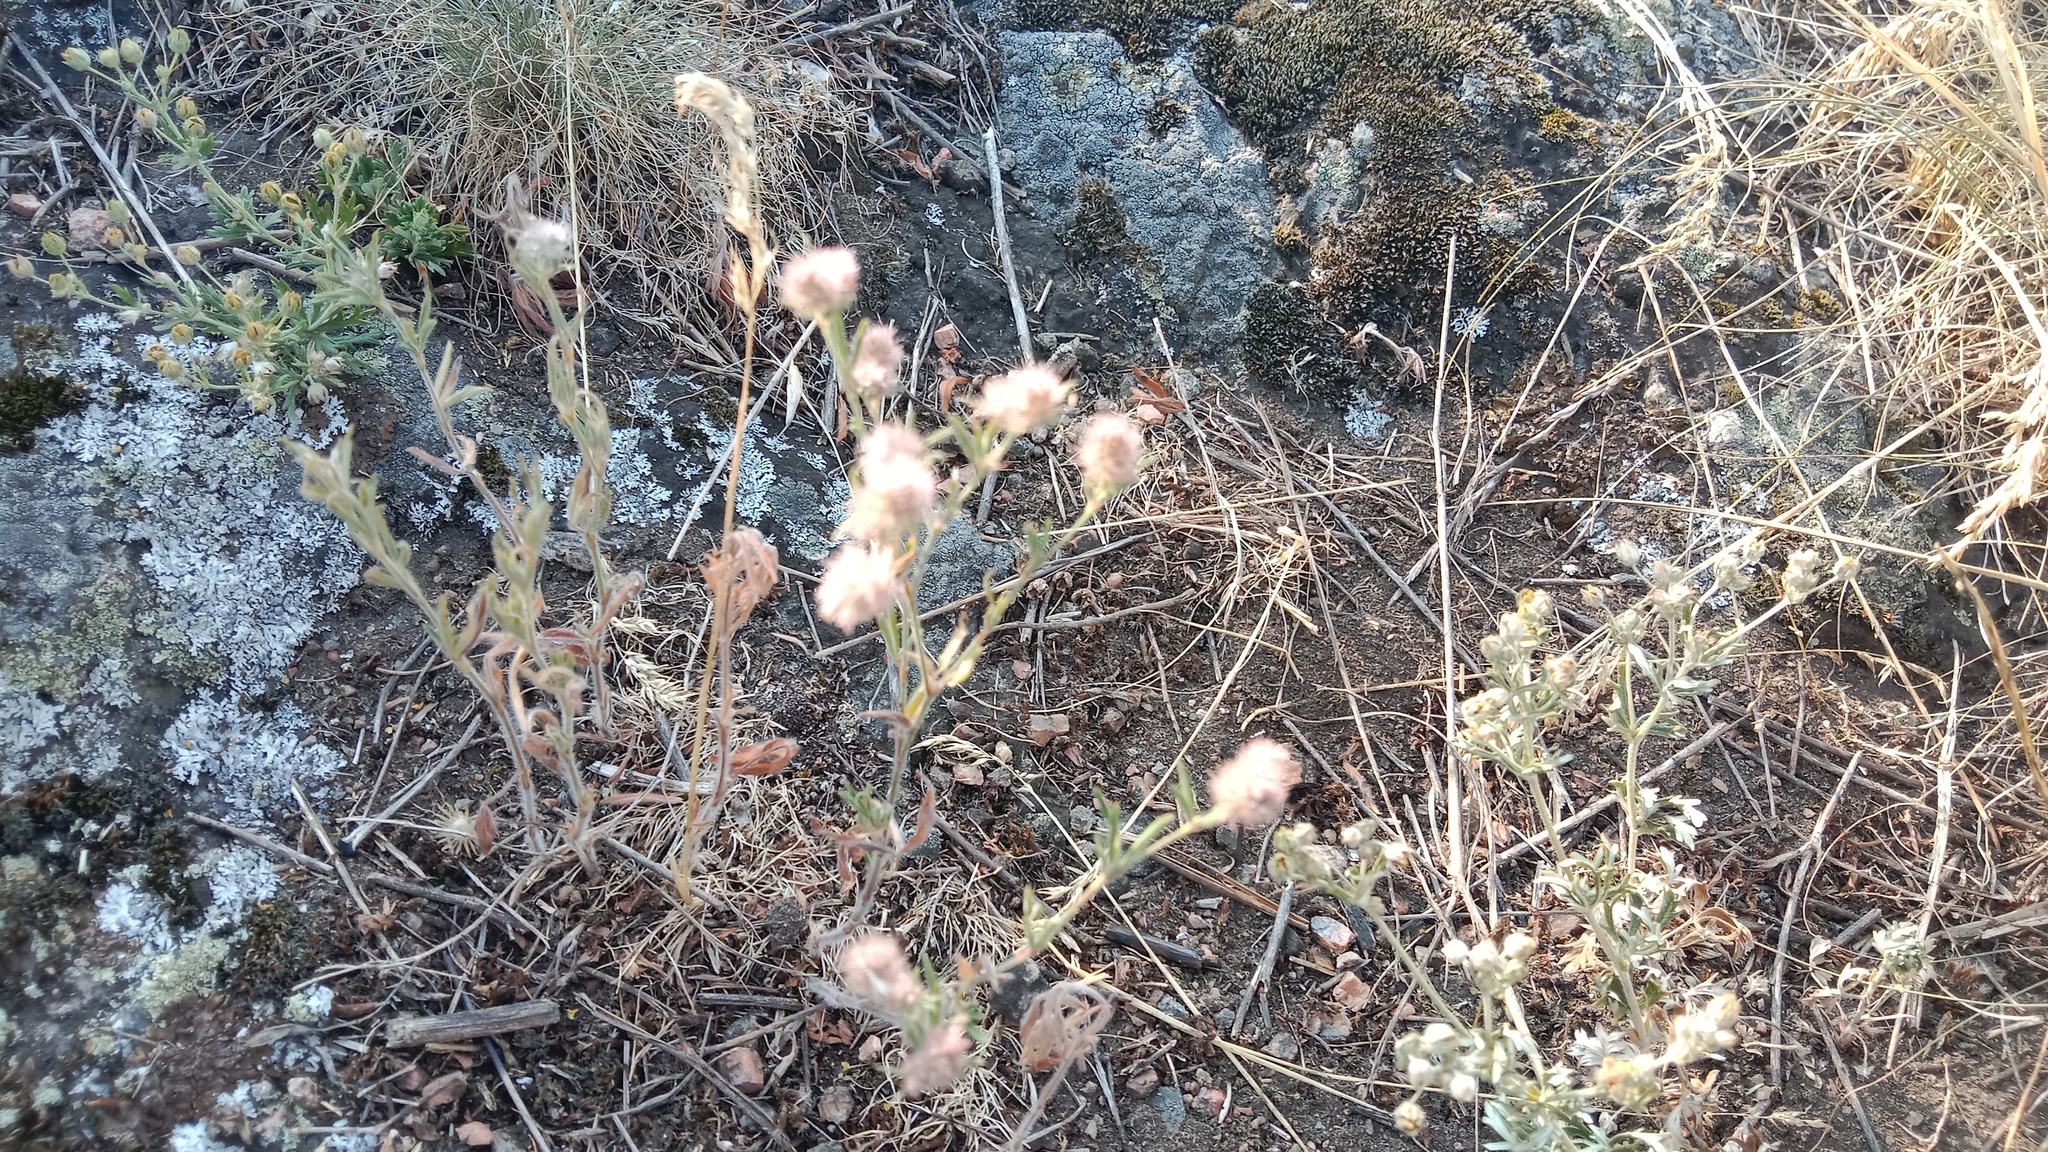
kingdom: Plantae
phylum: Tracheophyta
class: Magnoliopsida
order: Fabales
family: Fabaceae
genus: Trifolium
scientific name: Trifolium arvense
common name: Hare's-foot clover
